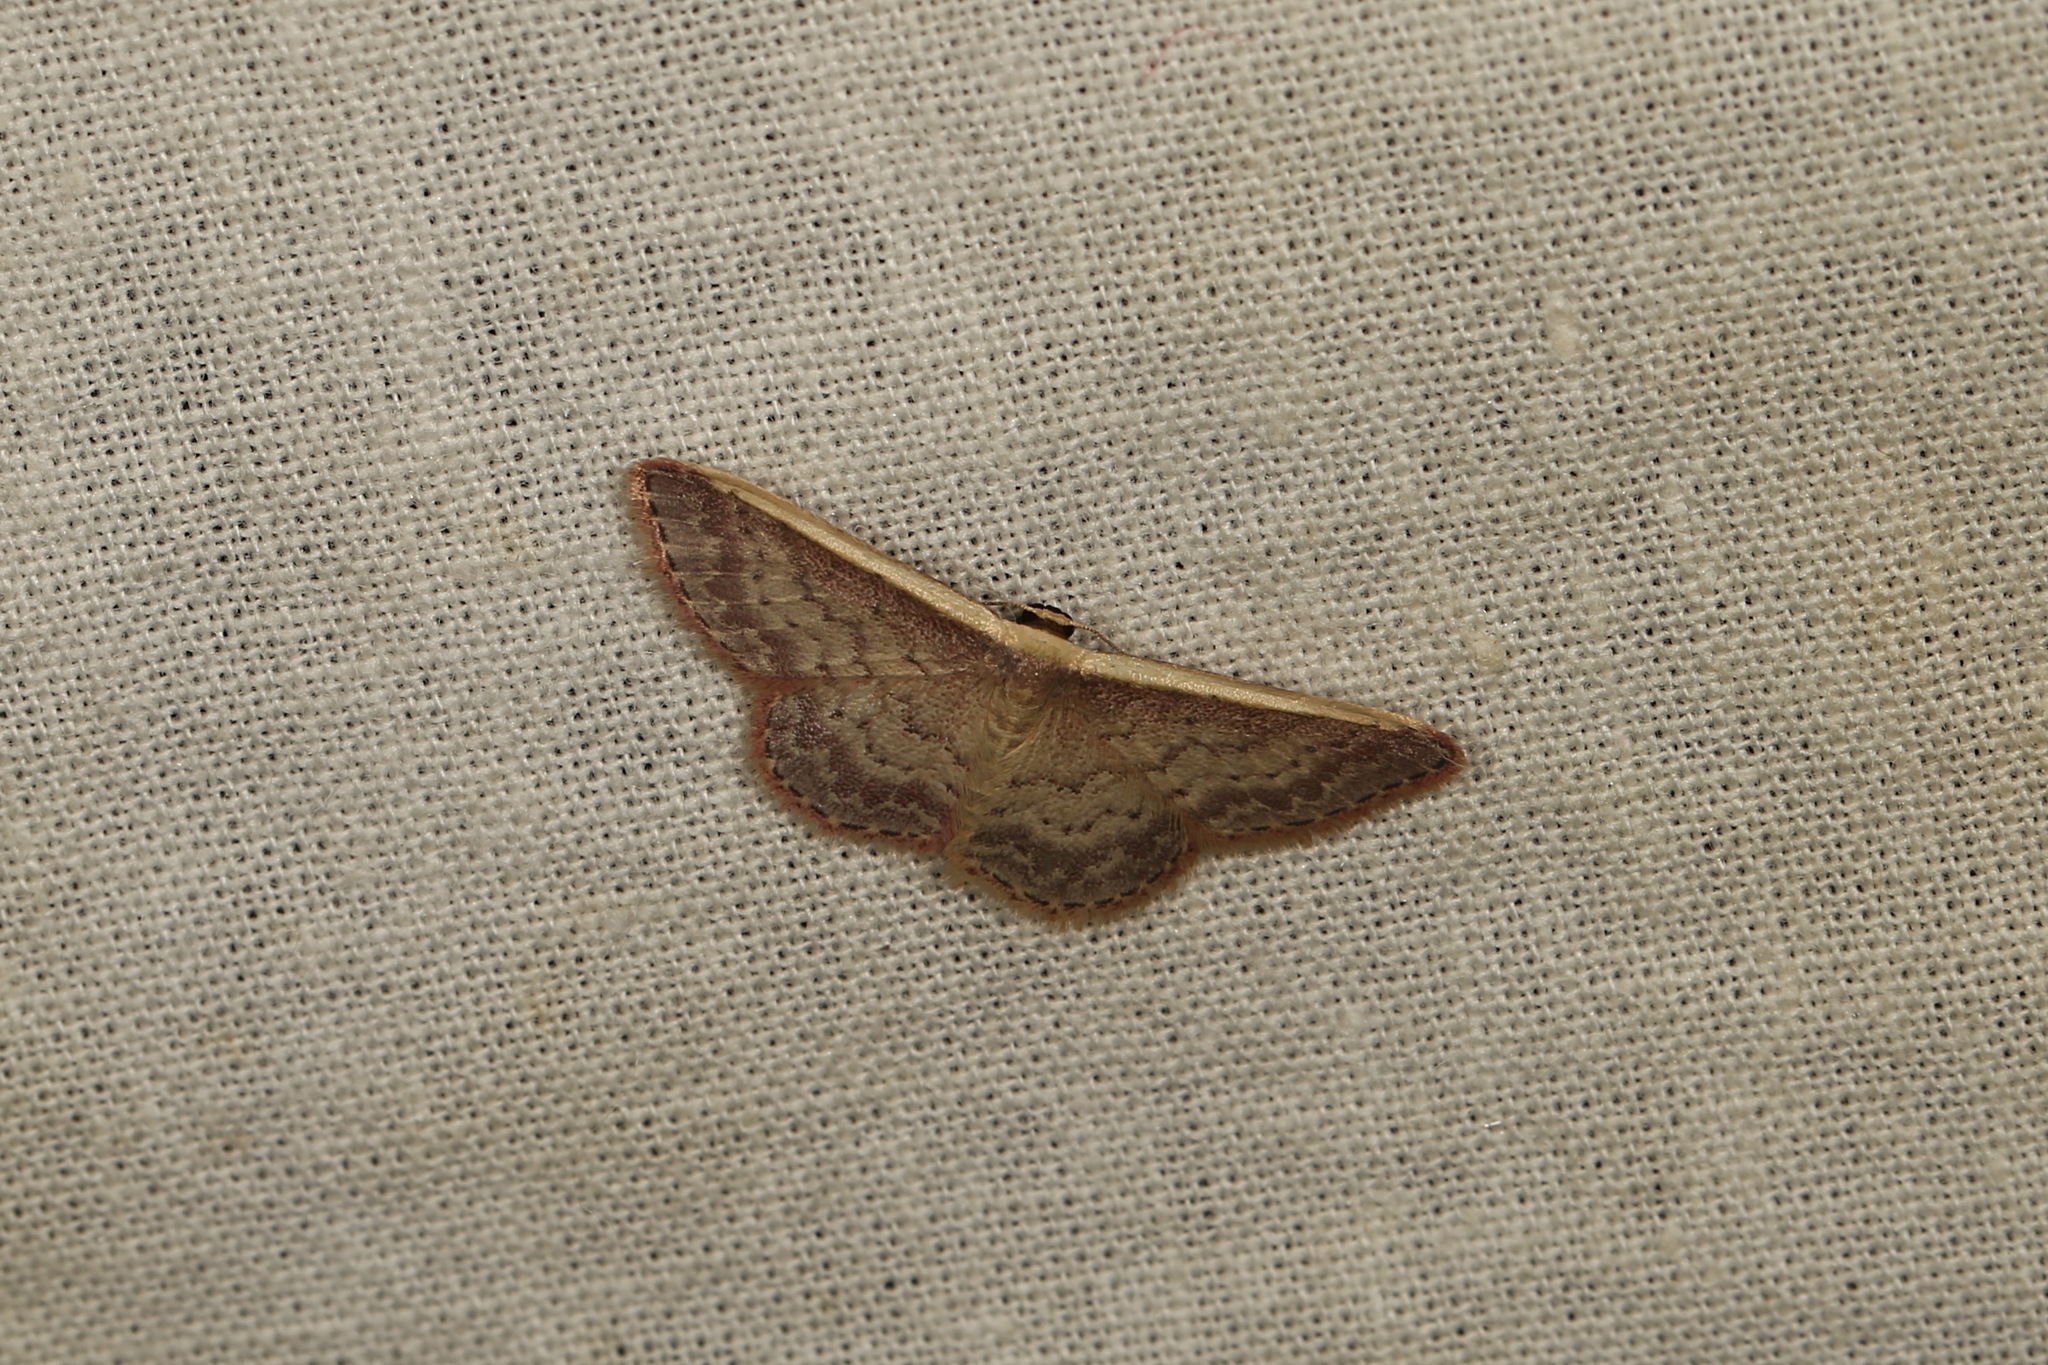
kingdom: Animalia
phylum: Arthropoda
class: Insecta
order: Lepidoptera
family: Geometridae
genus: Idaea
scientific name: Idaea nephelota
